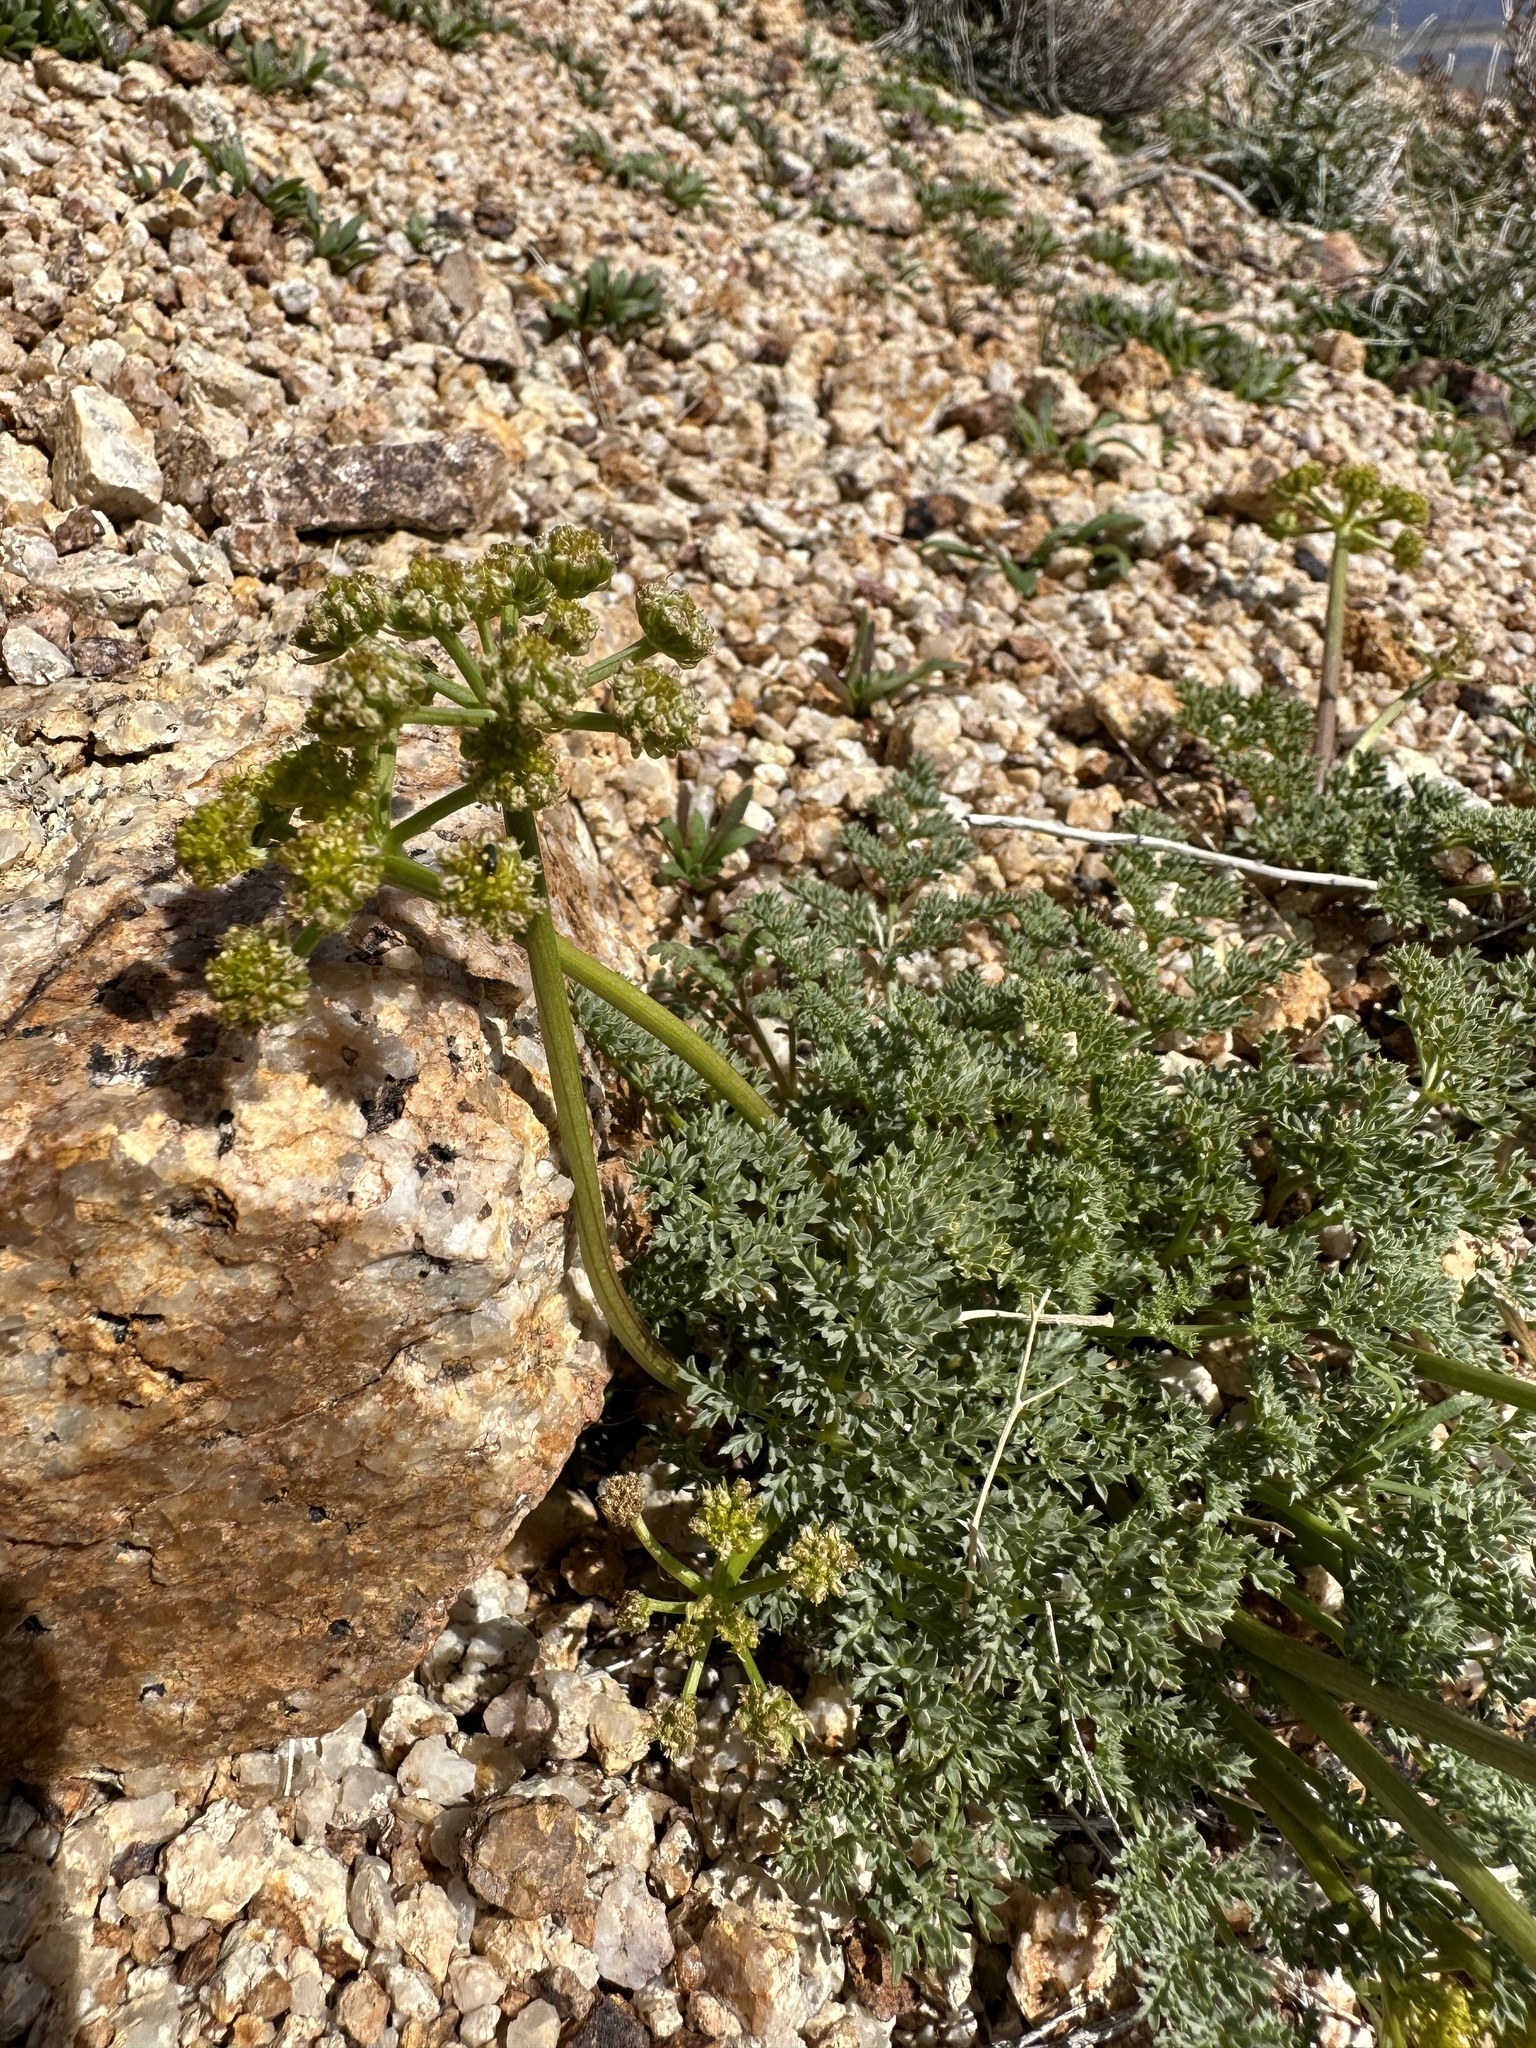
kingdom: Plantae
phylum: Tracheophyta
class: Magnoliopsida
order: Apiales
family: Apiaceae
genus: Pteryxia
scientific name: Pteryxia terebinthina
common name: Turpentine wavewing
